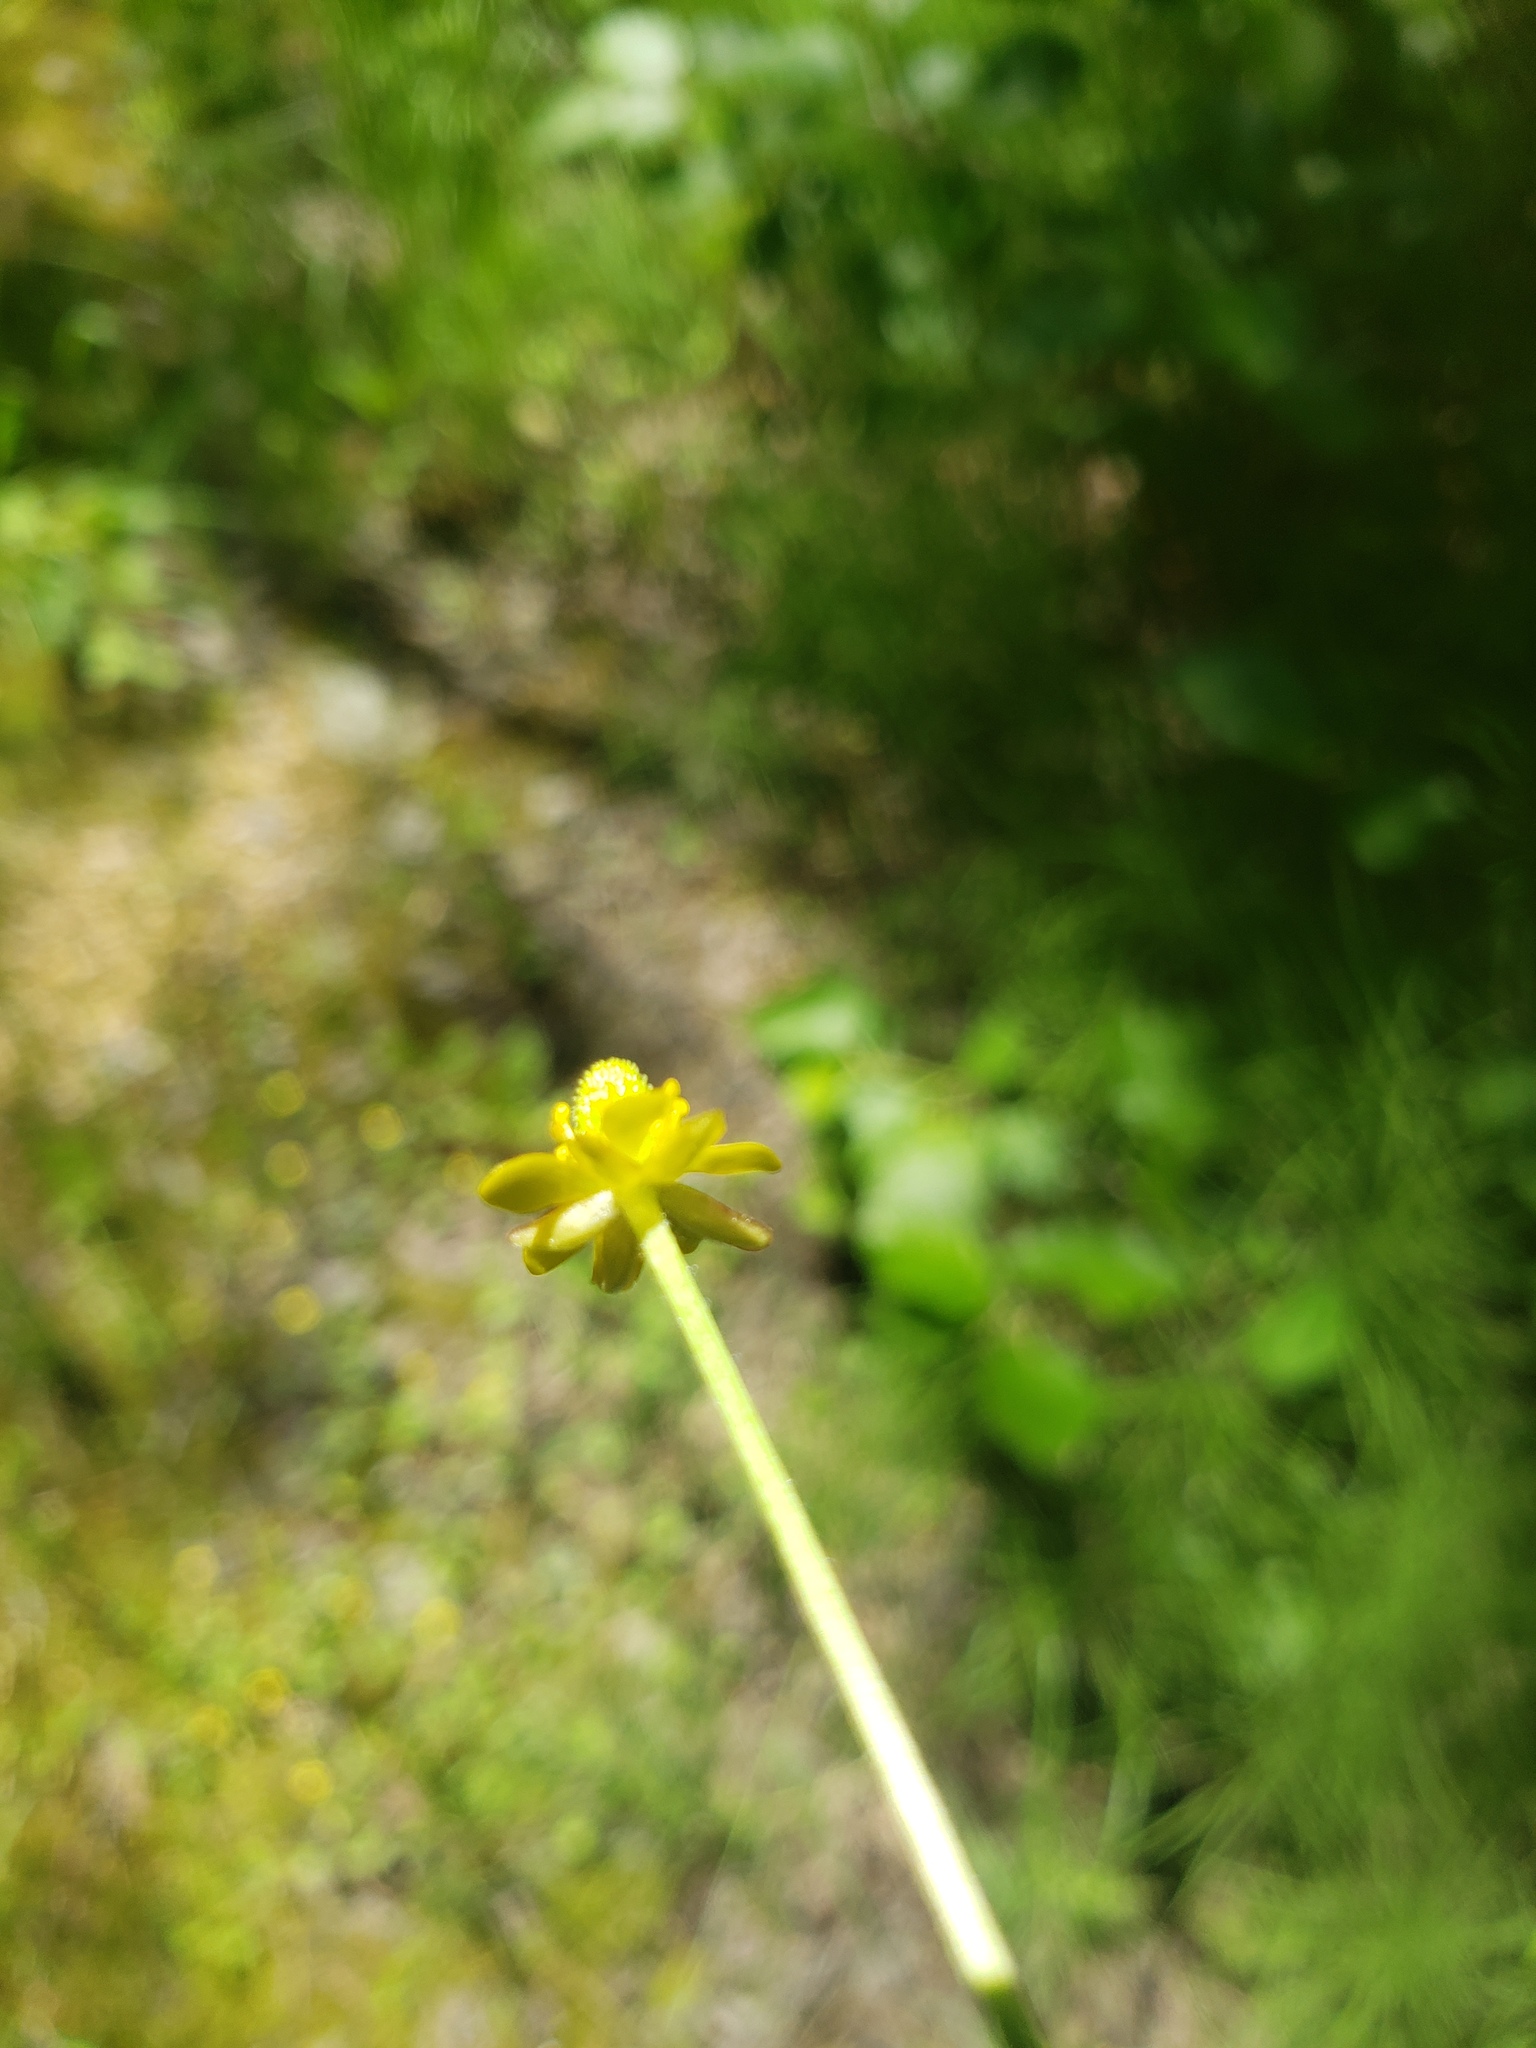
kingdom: Plantae
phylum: Tracheophyta
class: Magnoliopsida
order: Ranunculales
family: Ranunculaceae
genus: Halerpestes
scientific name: Halerpestes cymbalaria
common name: Seaside crowfoot
